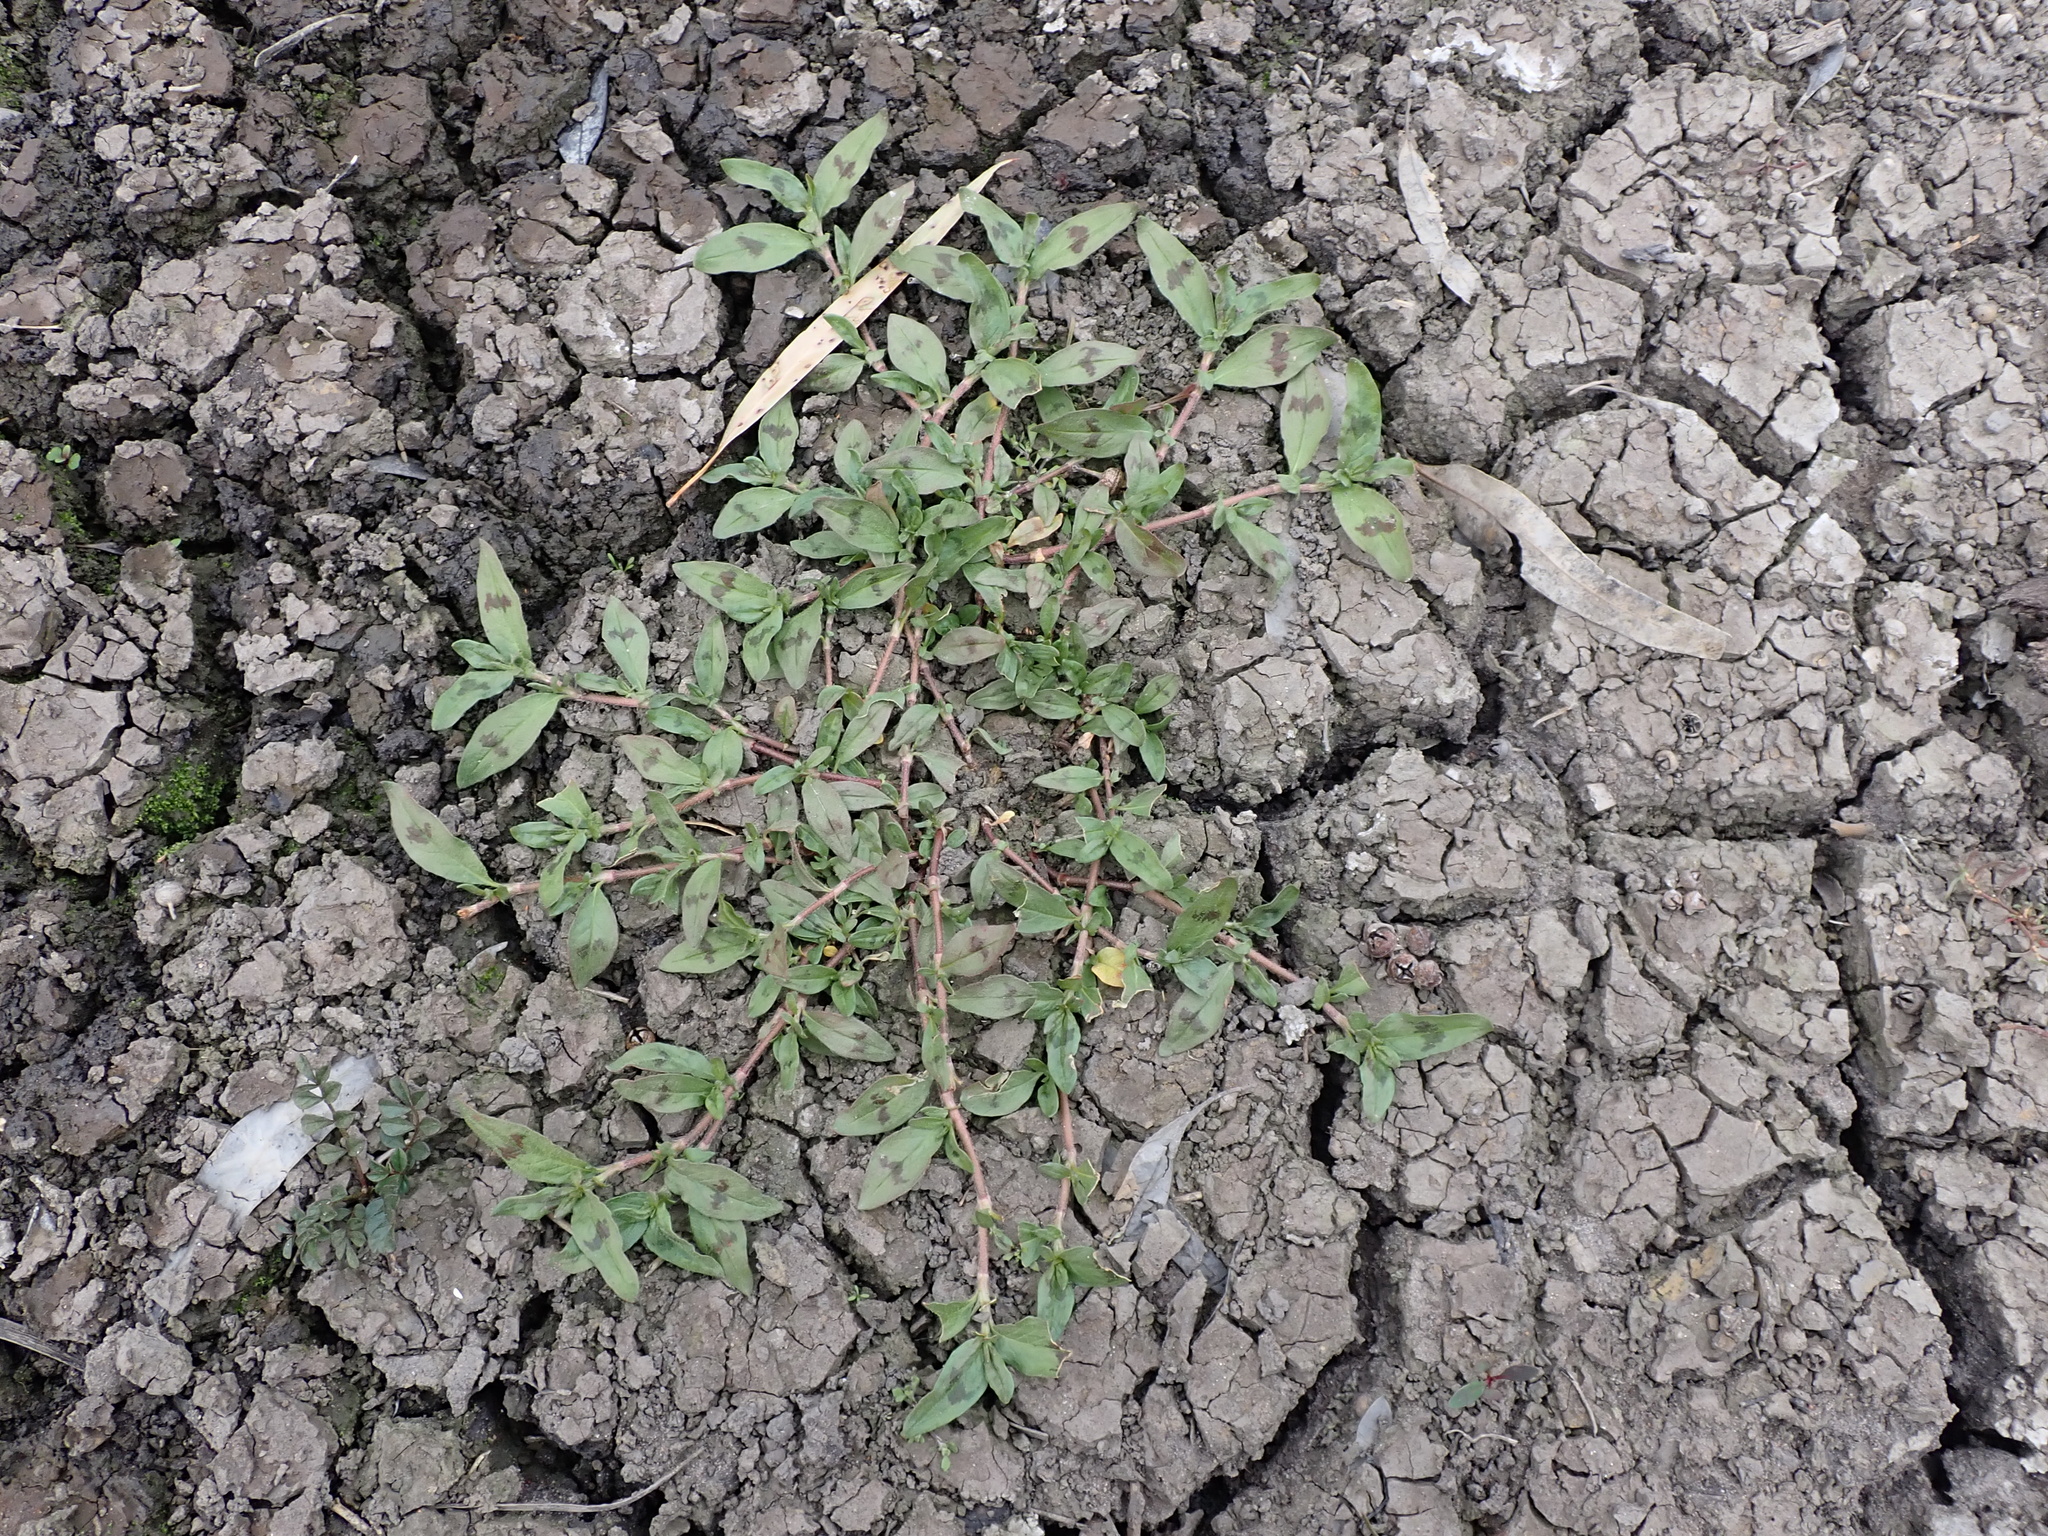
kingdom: Plantae
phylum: Tracheophyta
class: Magnoliopsida
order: Caryophyllales
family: Polygonaceae
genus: Persicaria
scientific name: Persicaria prostrata
